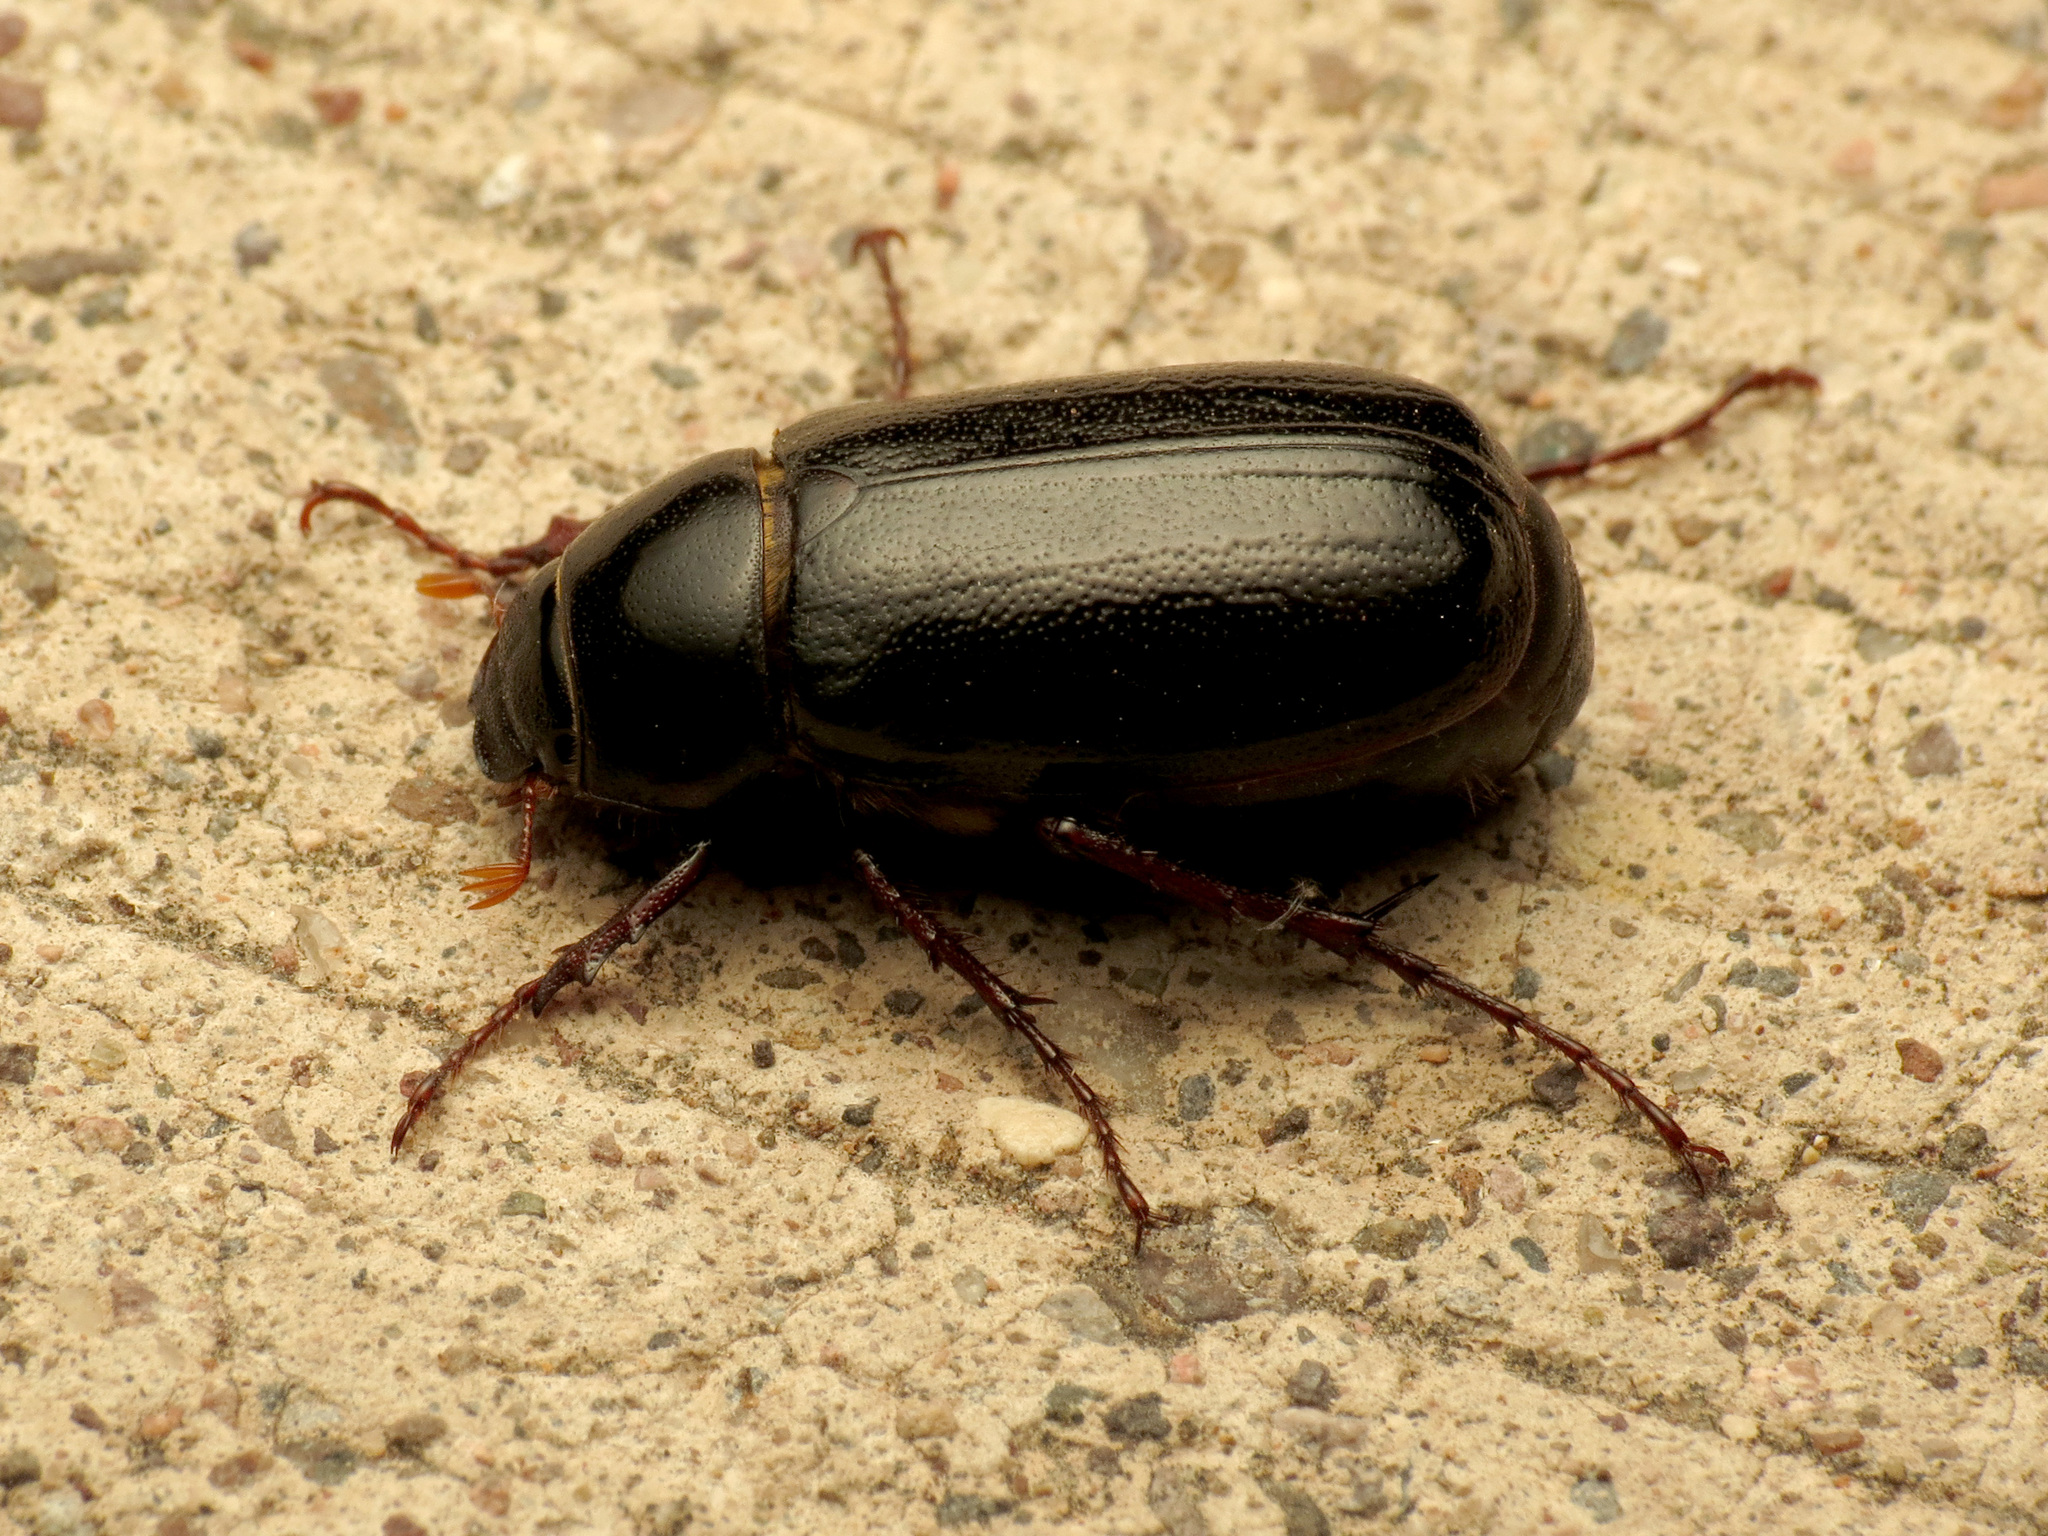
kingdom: Animalia
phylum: Arthropoda
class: Insecta
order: Coleoptera
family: Scarabaeidae
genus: Phyllophaga
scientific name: Phyllophaga bilobatata
